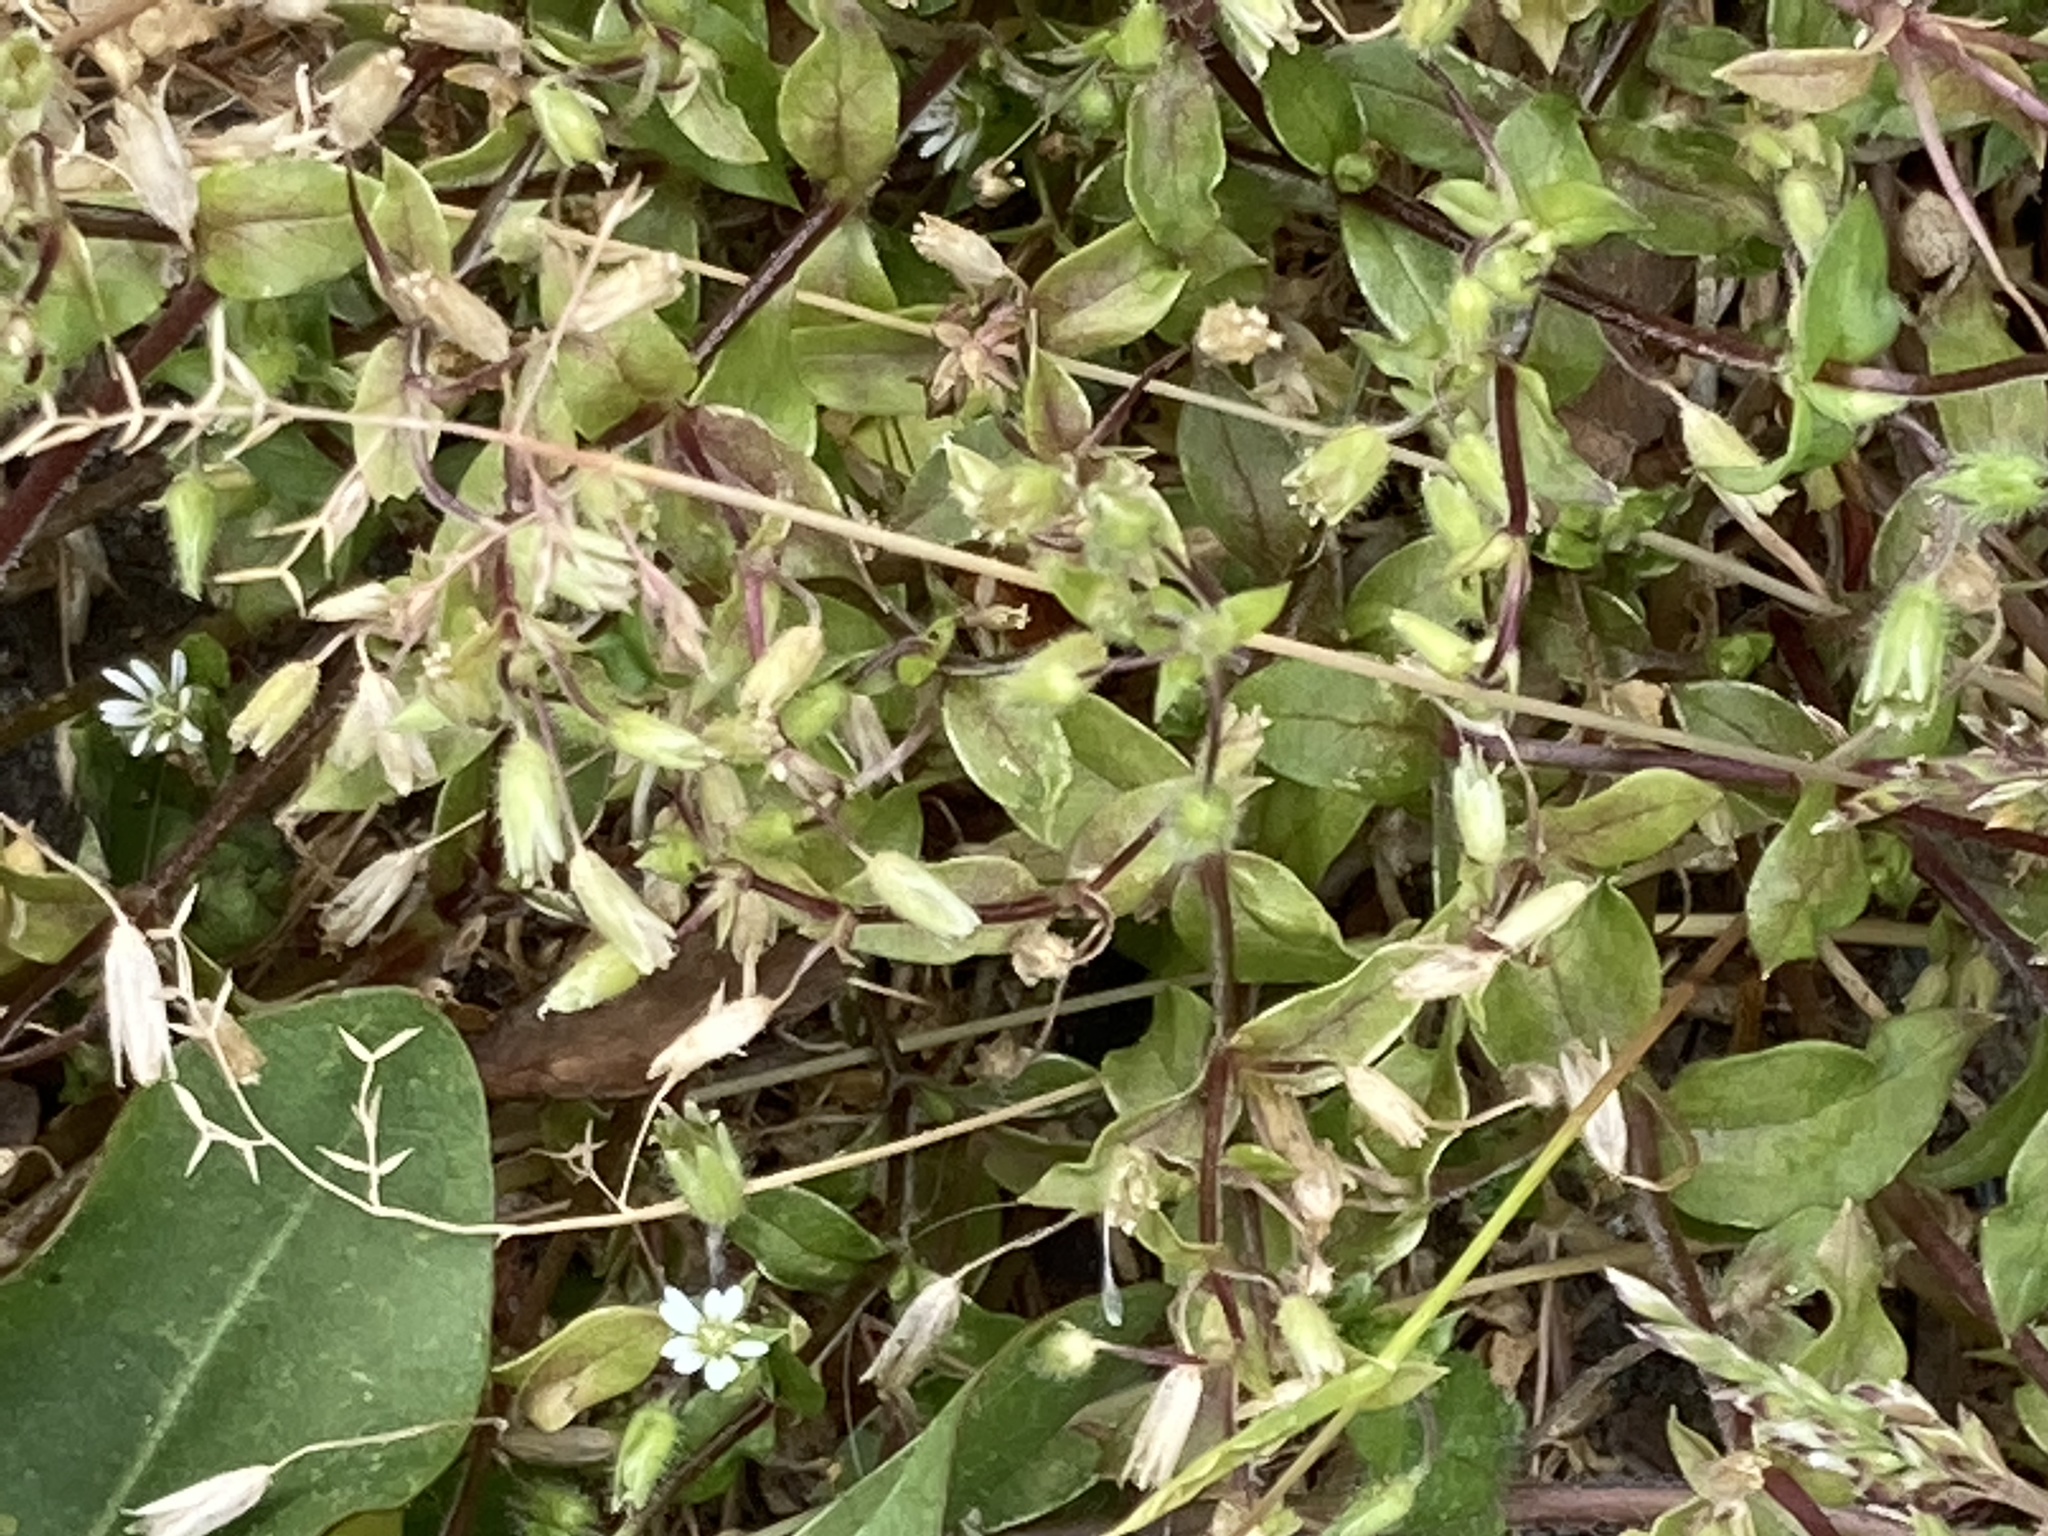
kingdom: Plantae
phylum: Tracheophyta
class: Magnoliopsida
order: Caryophyllales
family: Caryophyllaceae
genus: Stellaria
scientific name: Stellaria media
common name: Common chickweed
